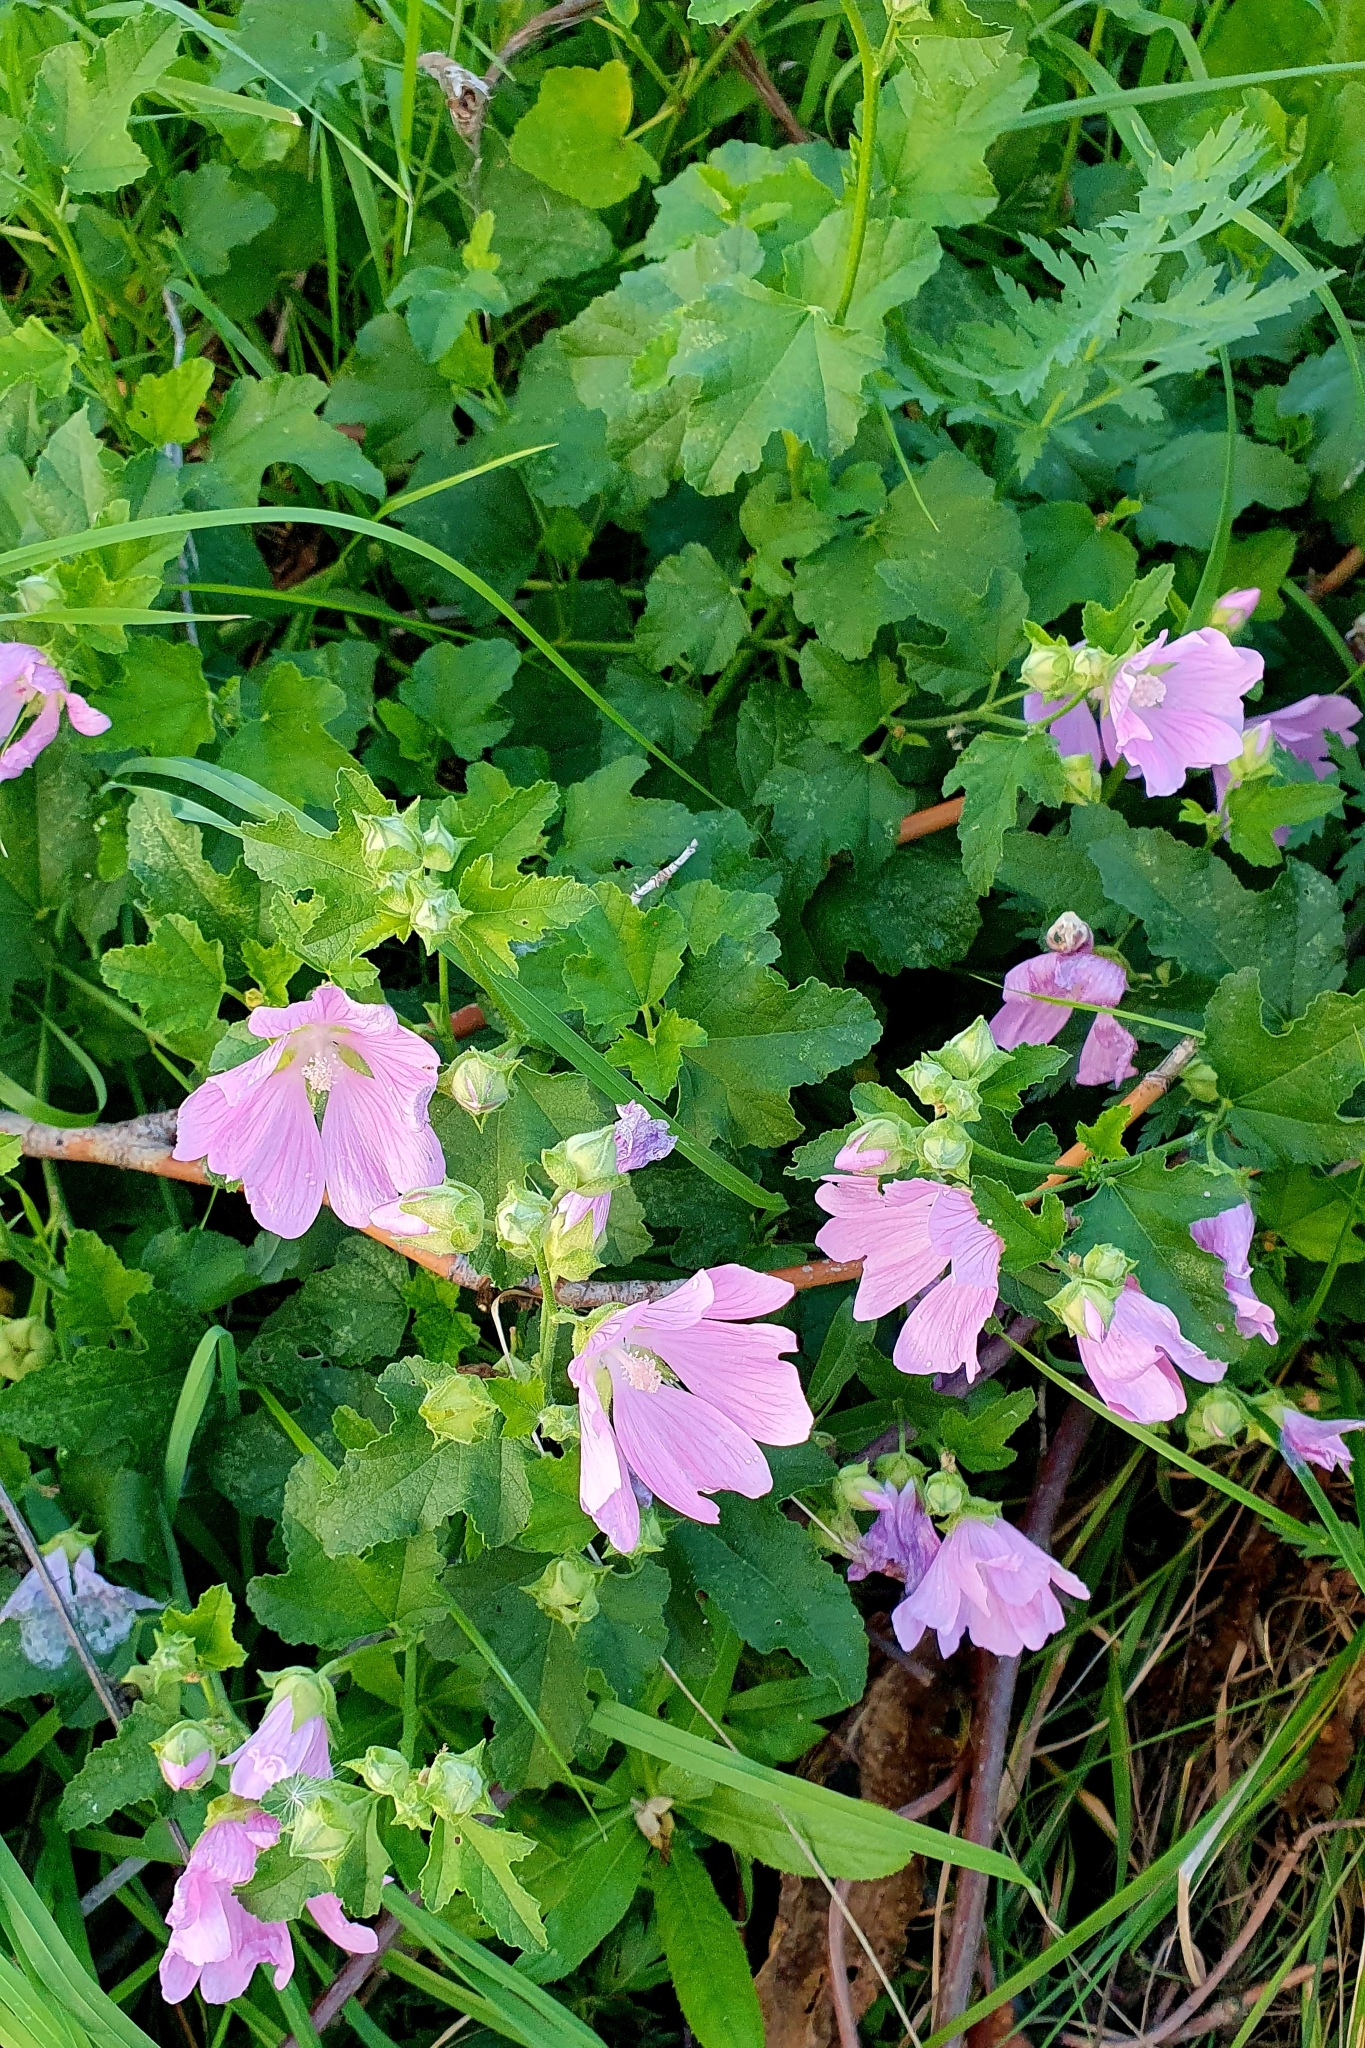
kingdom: Plantae
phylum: Tracheophyta
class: Magnoliopsida
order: Malvales
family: Malvaceae
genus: Malva
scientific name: Malva thuringiaca
